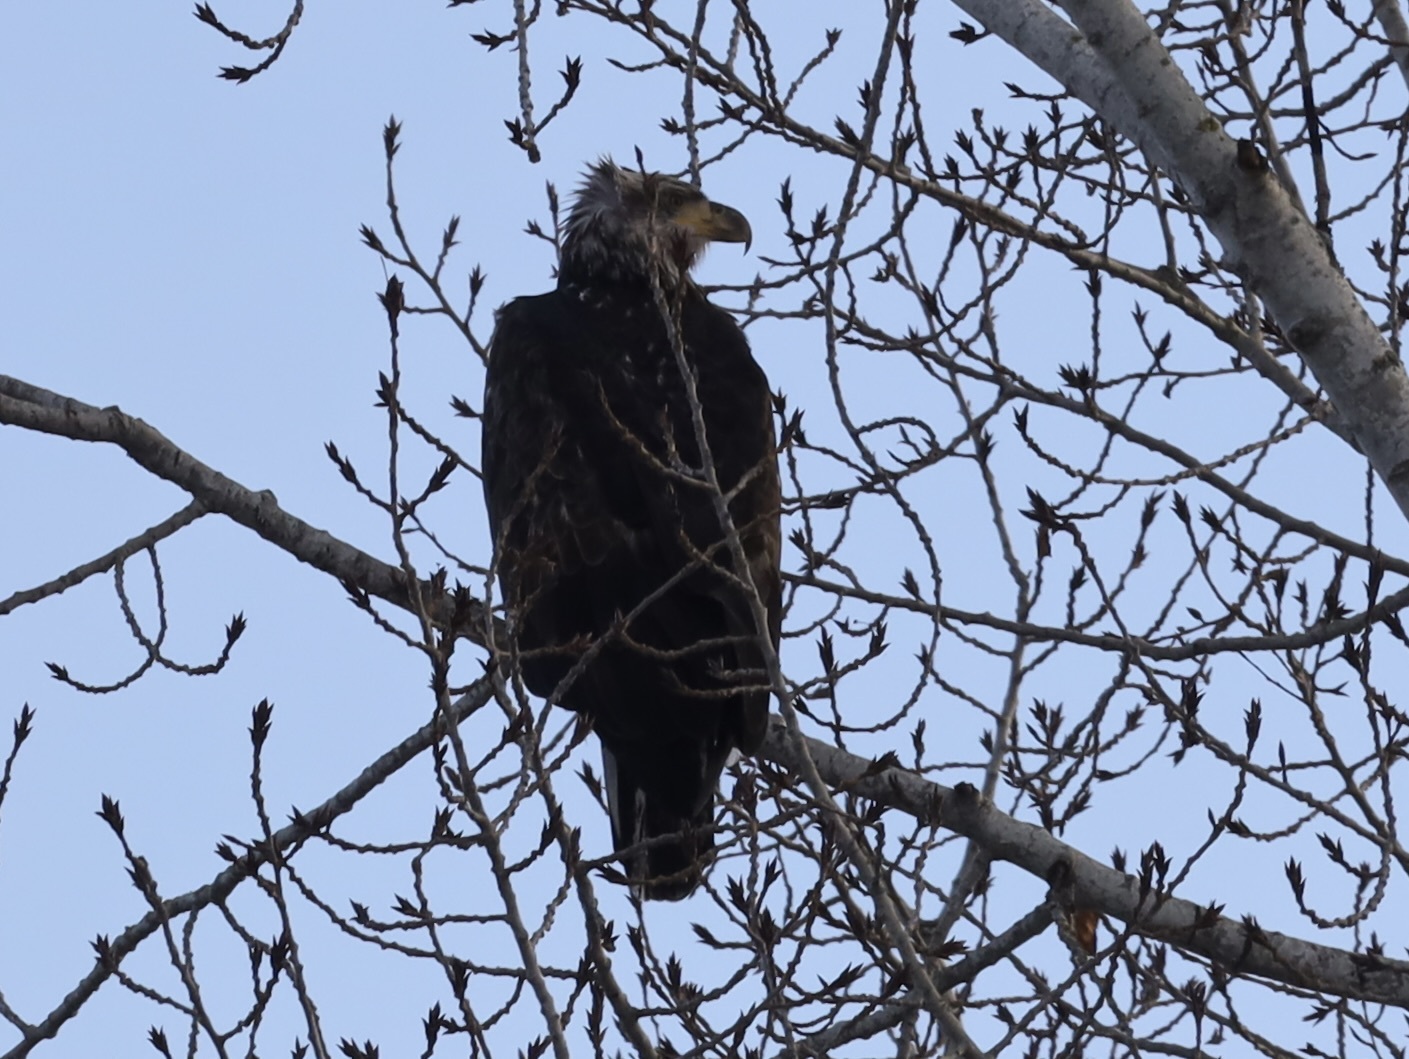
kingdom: Animalia
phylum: Chordata
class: Aves
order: Accipitriformes
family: Accipitridae
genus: Haliaeetus
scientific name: Haliaeetus leucocephalus
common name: Bald eagle
